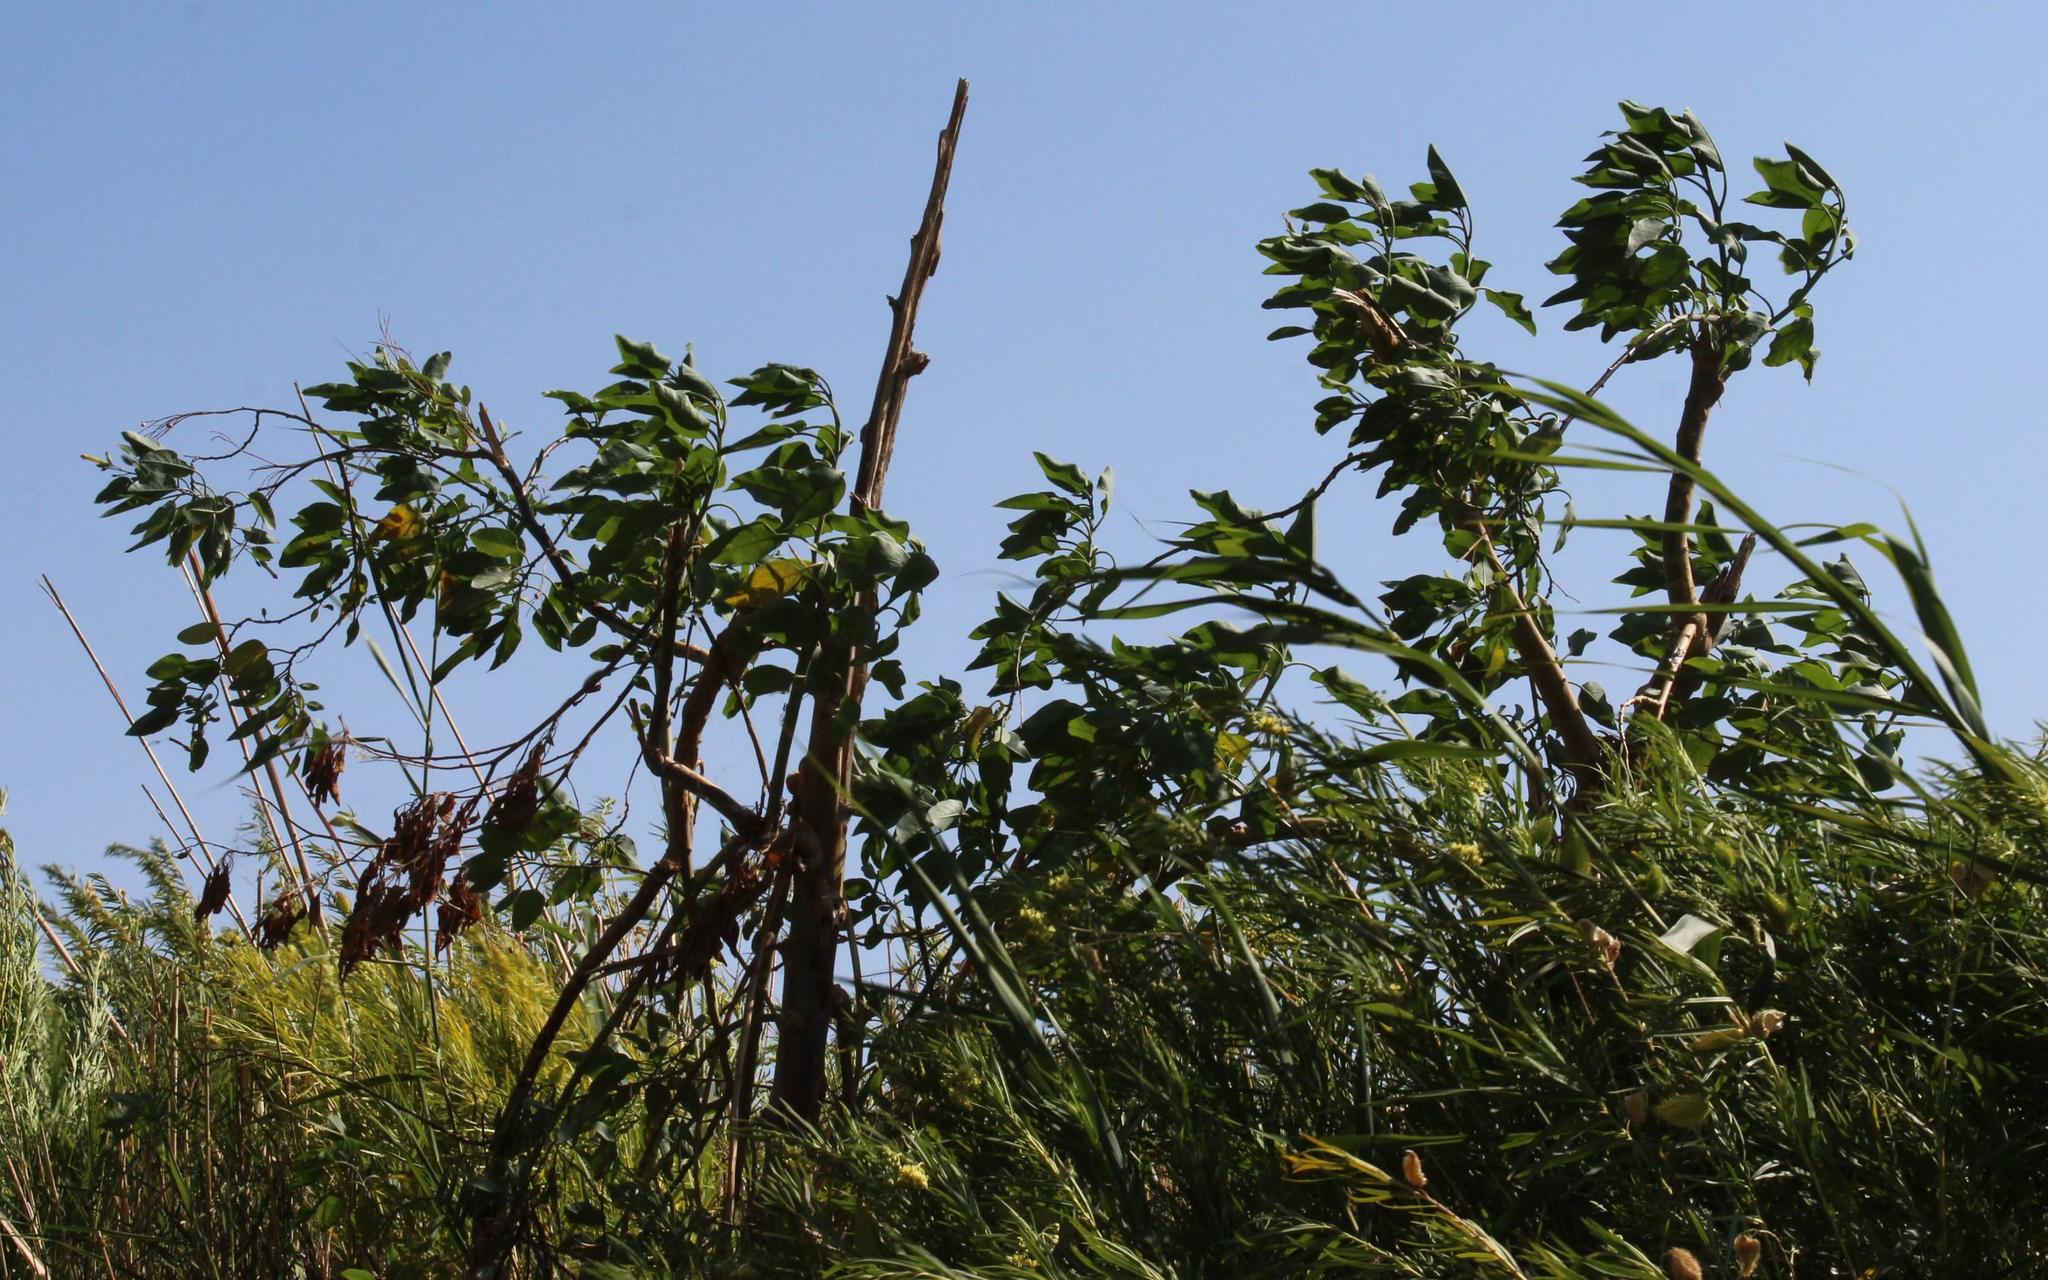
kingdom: Plantae
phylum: Tracheophyta
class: Magnoliopsida
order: Solanales
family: Solanaceae
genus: Nicotiana
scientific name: Nicotiana glauca
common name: Tree tobacco
